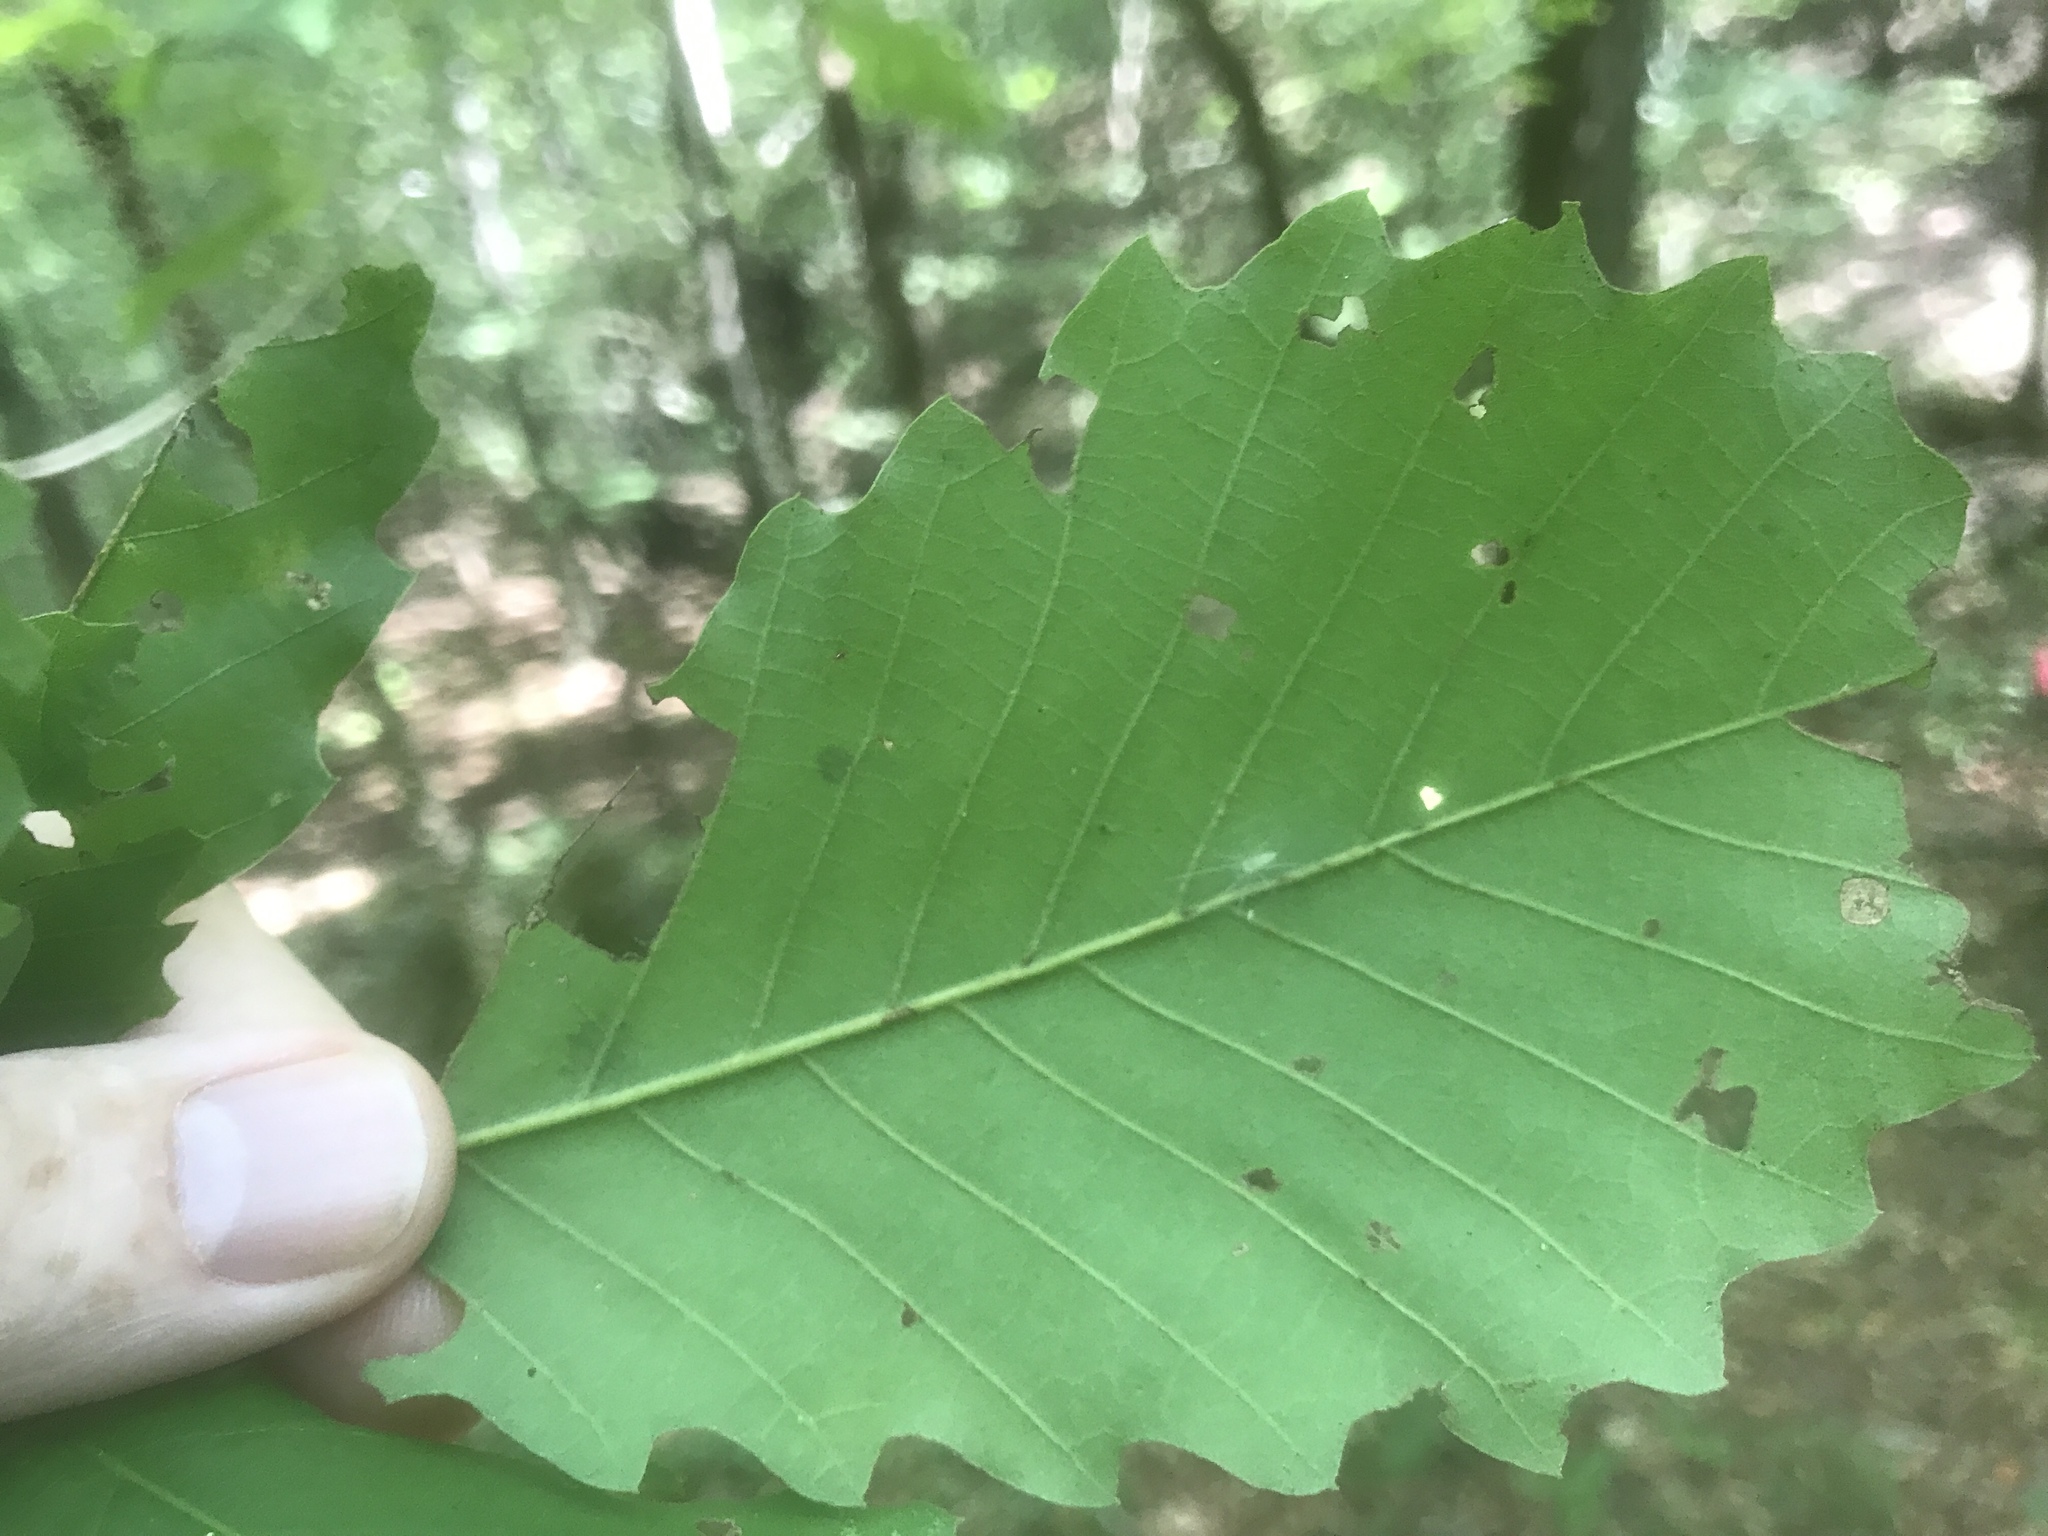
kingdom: Plantae
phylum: Tracheophyta
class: Magnoliopsida
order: Fagales
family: Fagaceae
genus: Quercus
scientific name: Quercus muehlenbergii
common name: Chinkapin oak
